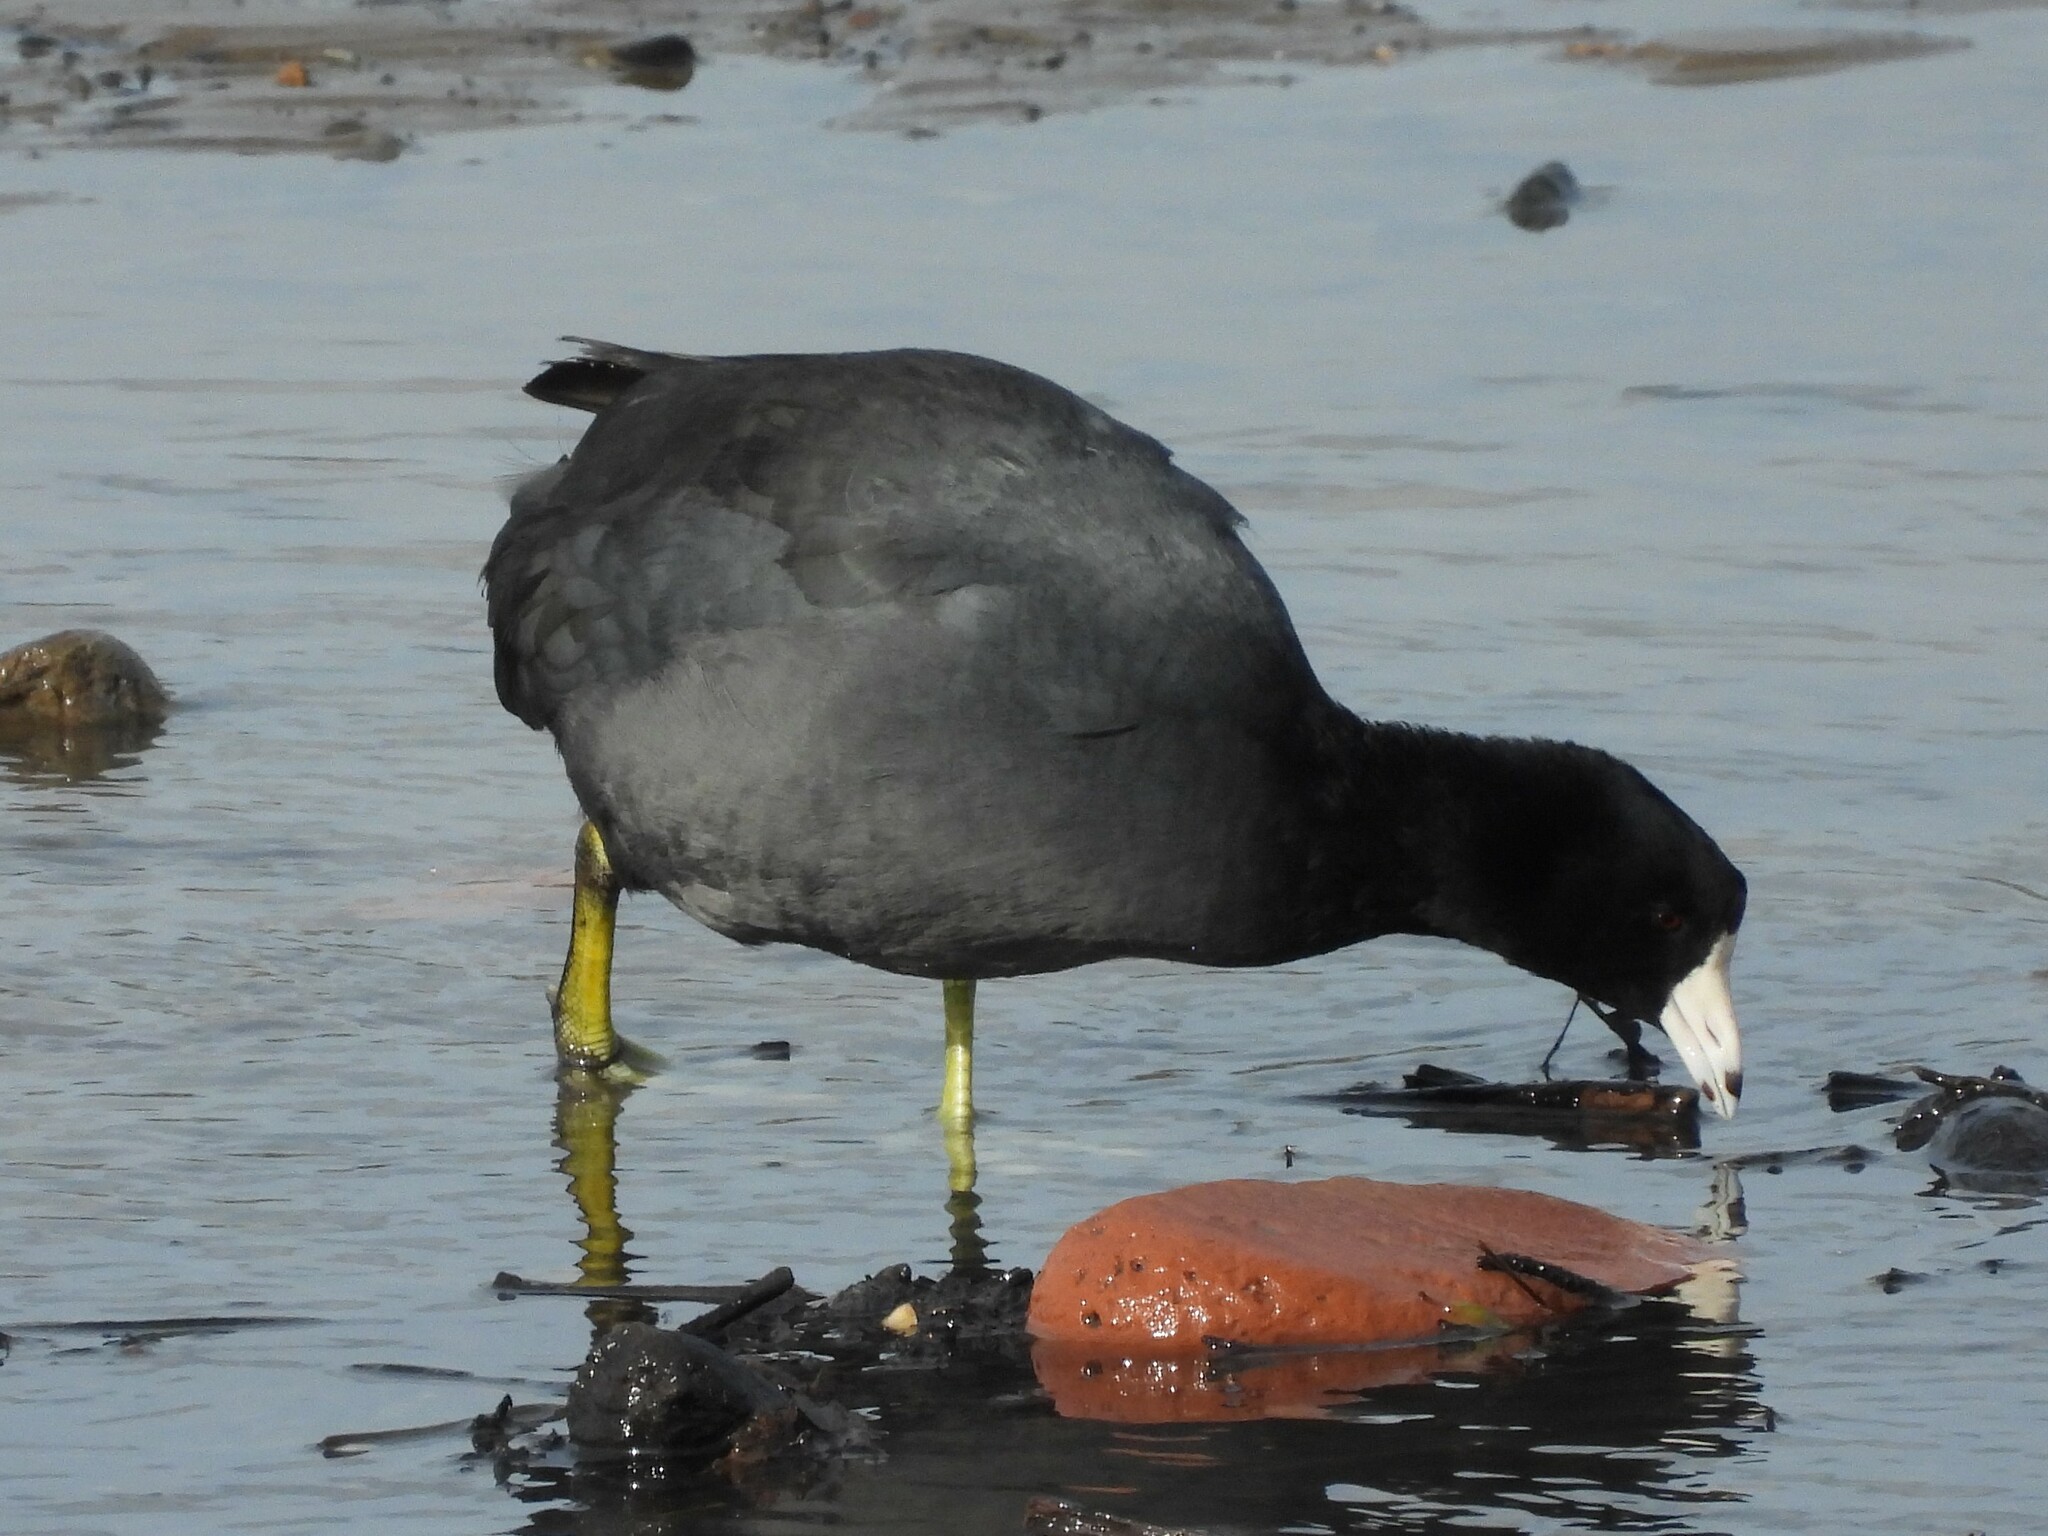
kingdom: Animalia
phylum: Chordata
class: Aves
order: Gruiformes
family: Rallidae
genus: Fulica
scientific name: Fulica americana
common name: American coot
